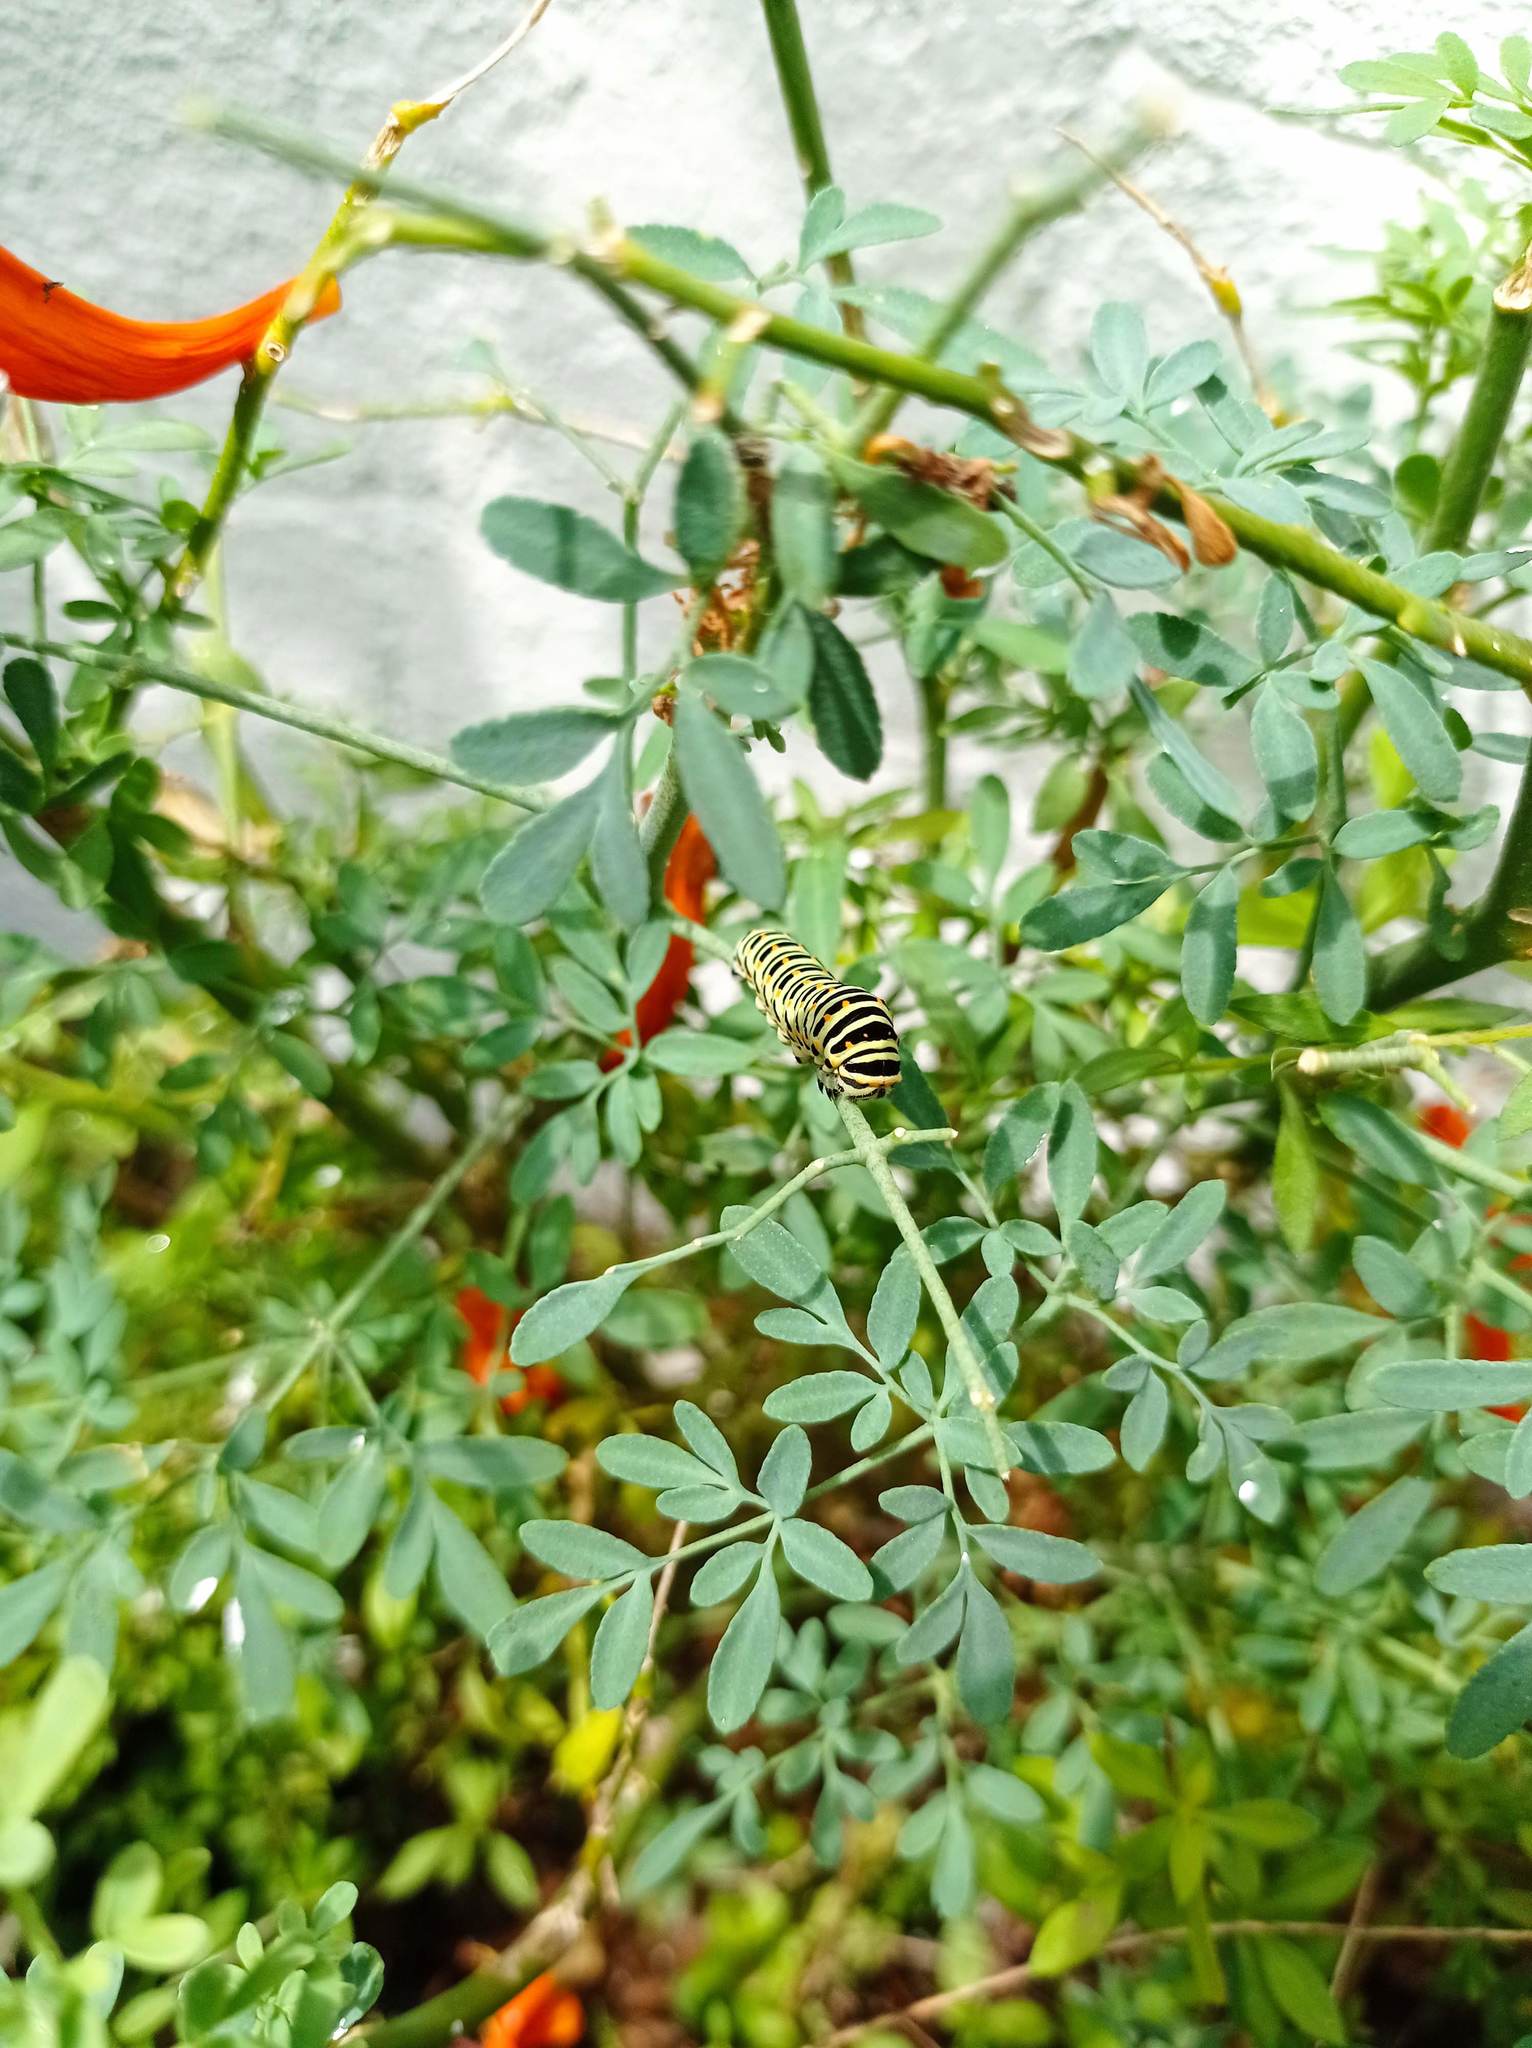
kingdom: Animalia
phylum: Arthropoda
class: Insecta
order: Lepidoptera
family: Papilionidae
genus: Papilio
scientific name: Papilio machaon
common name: Swallowtail
